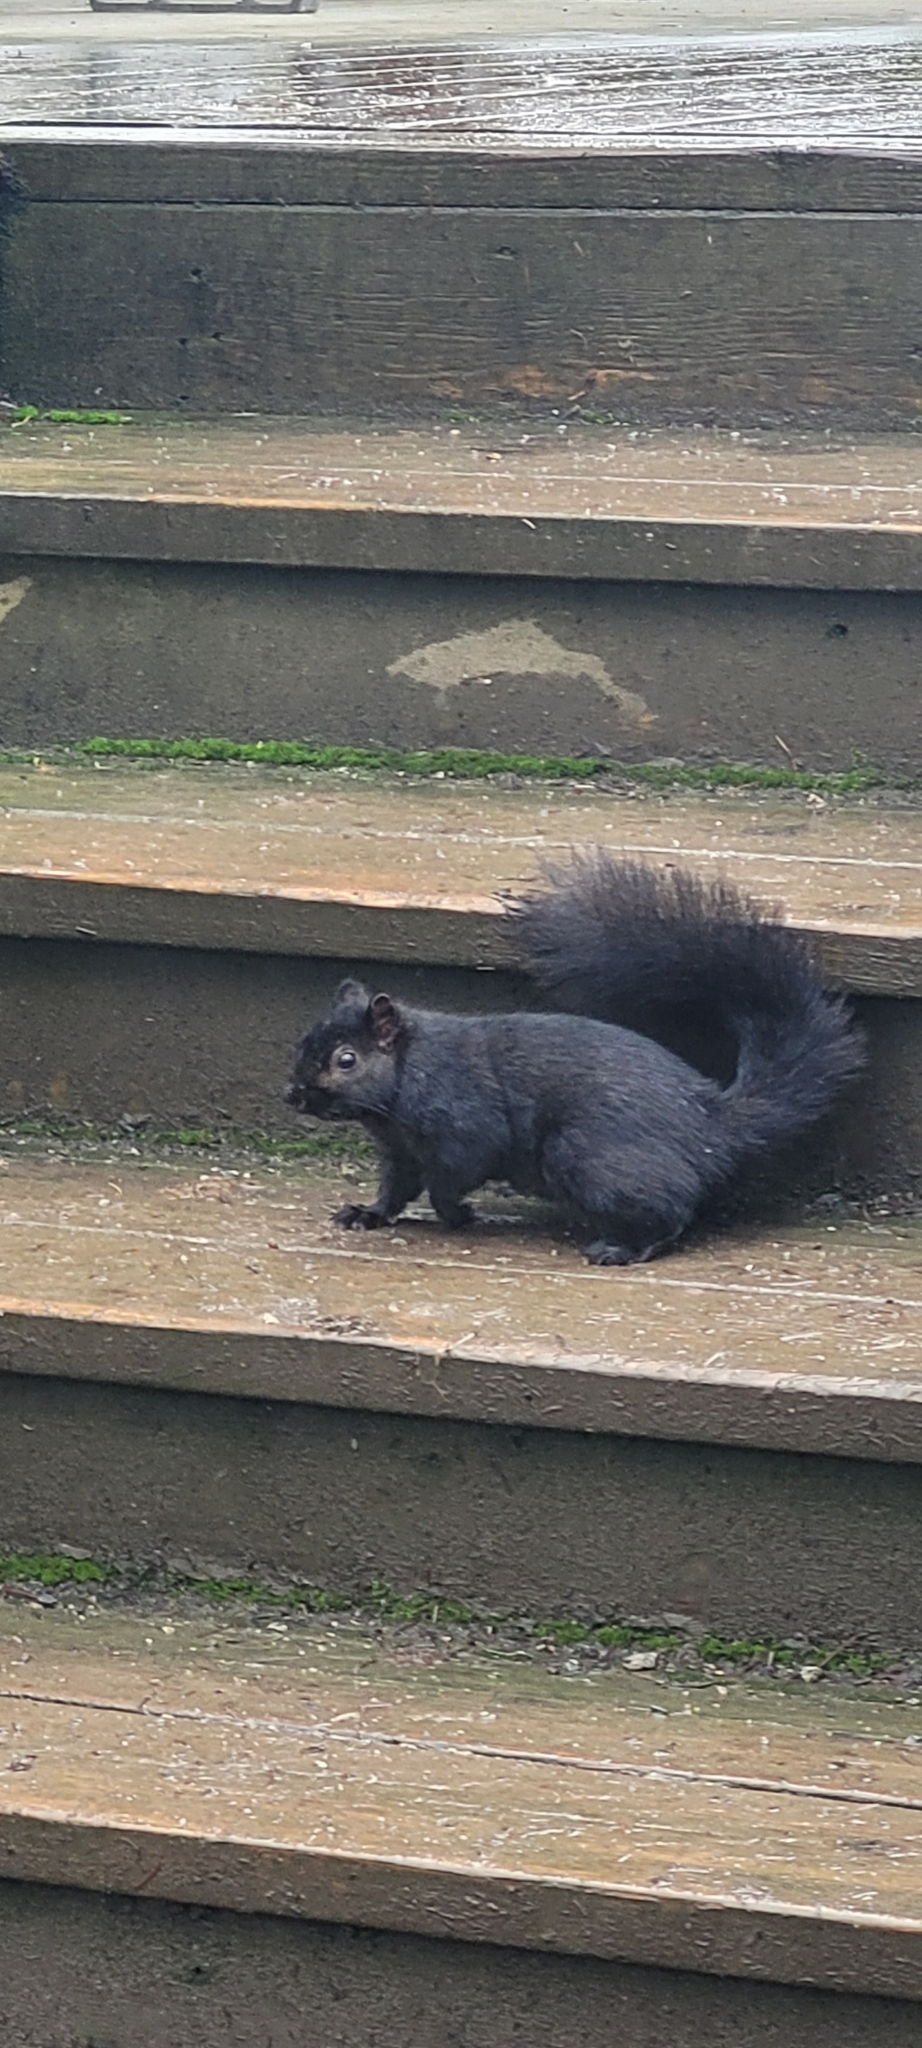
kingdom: Animalia
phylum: Chordata
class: Mammalia
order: Rodentia
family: Sciuridae
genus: Sciurus
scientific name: Sciurus carolinensis
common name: Eastern gray squirrel
